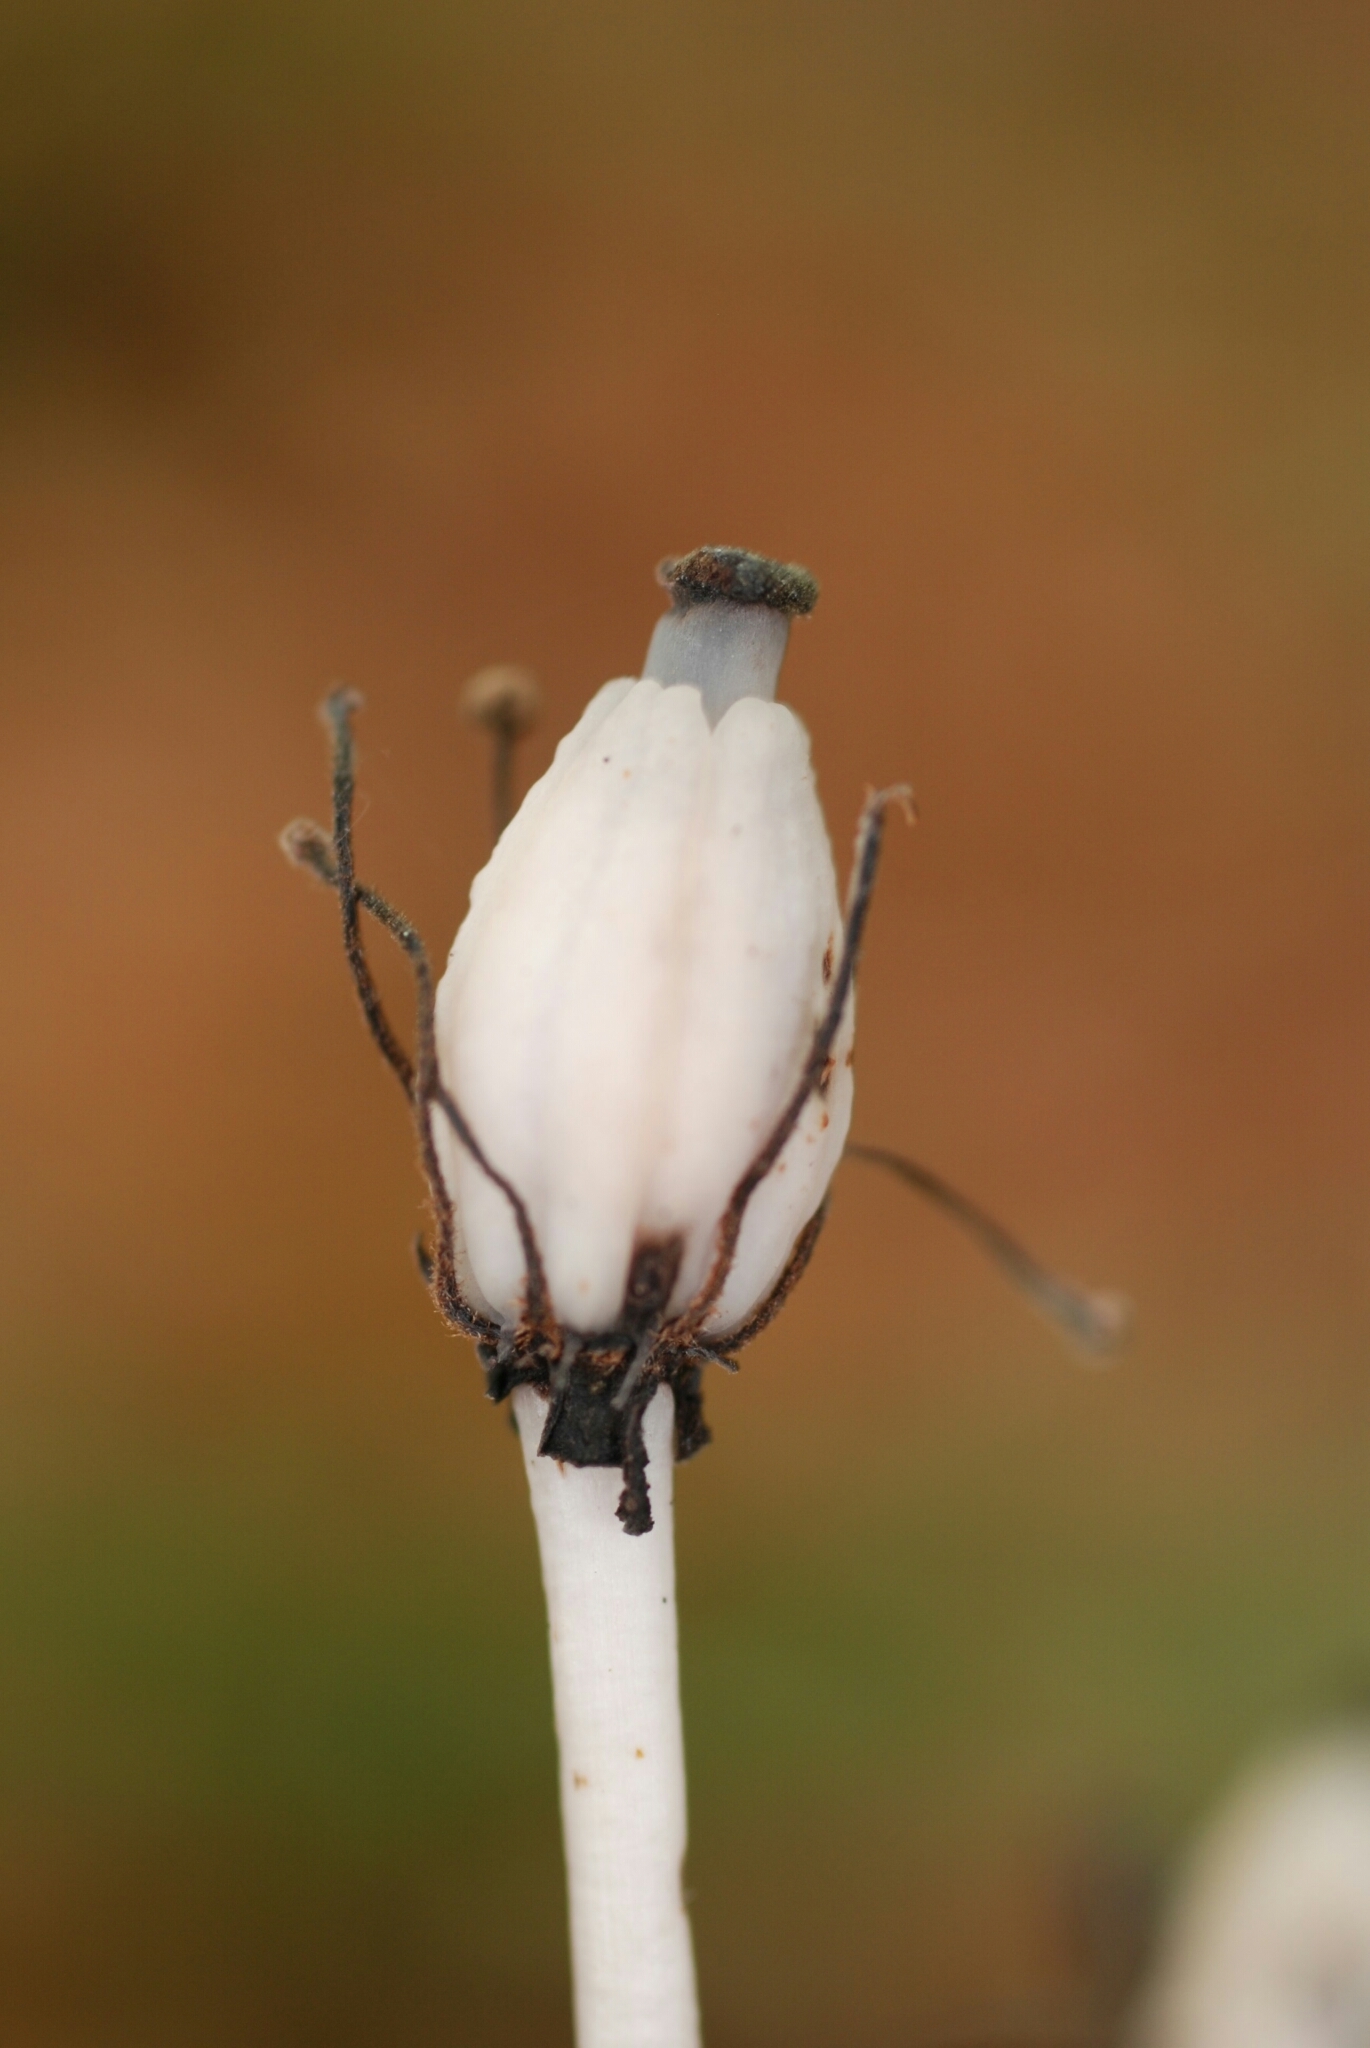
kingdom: Plantae
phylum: Tracheophyta
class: Magnoliopsida
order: Ericales
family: Ericaceae
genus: Monotropa
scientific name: Monotropa uniflora
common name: Convulsion root
